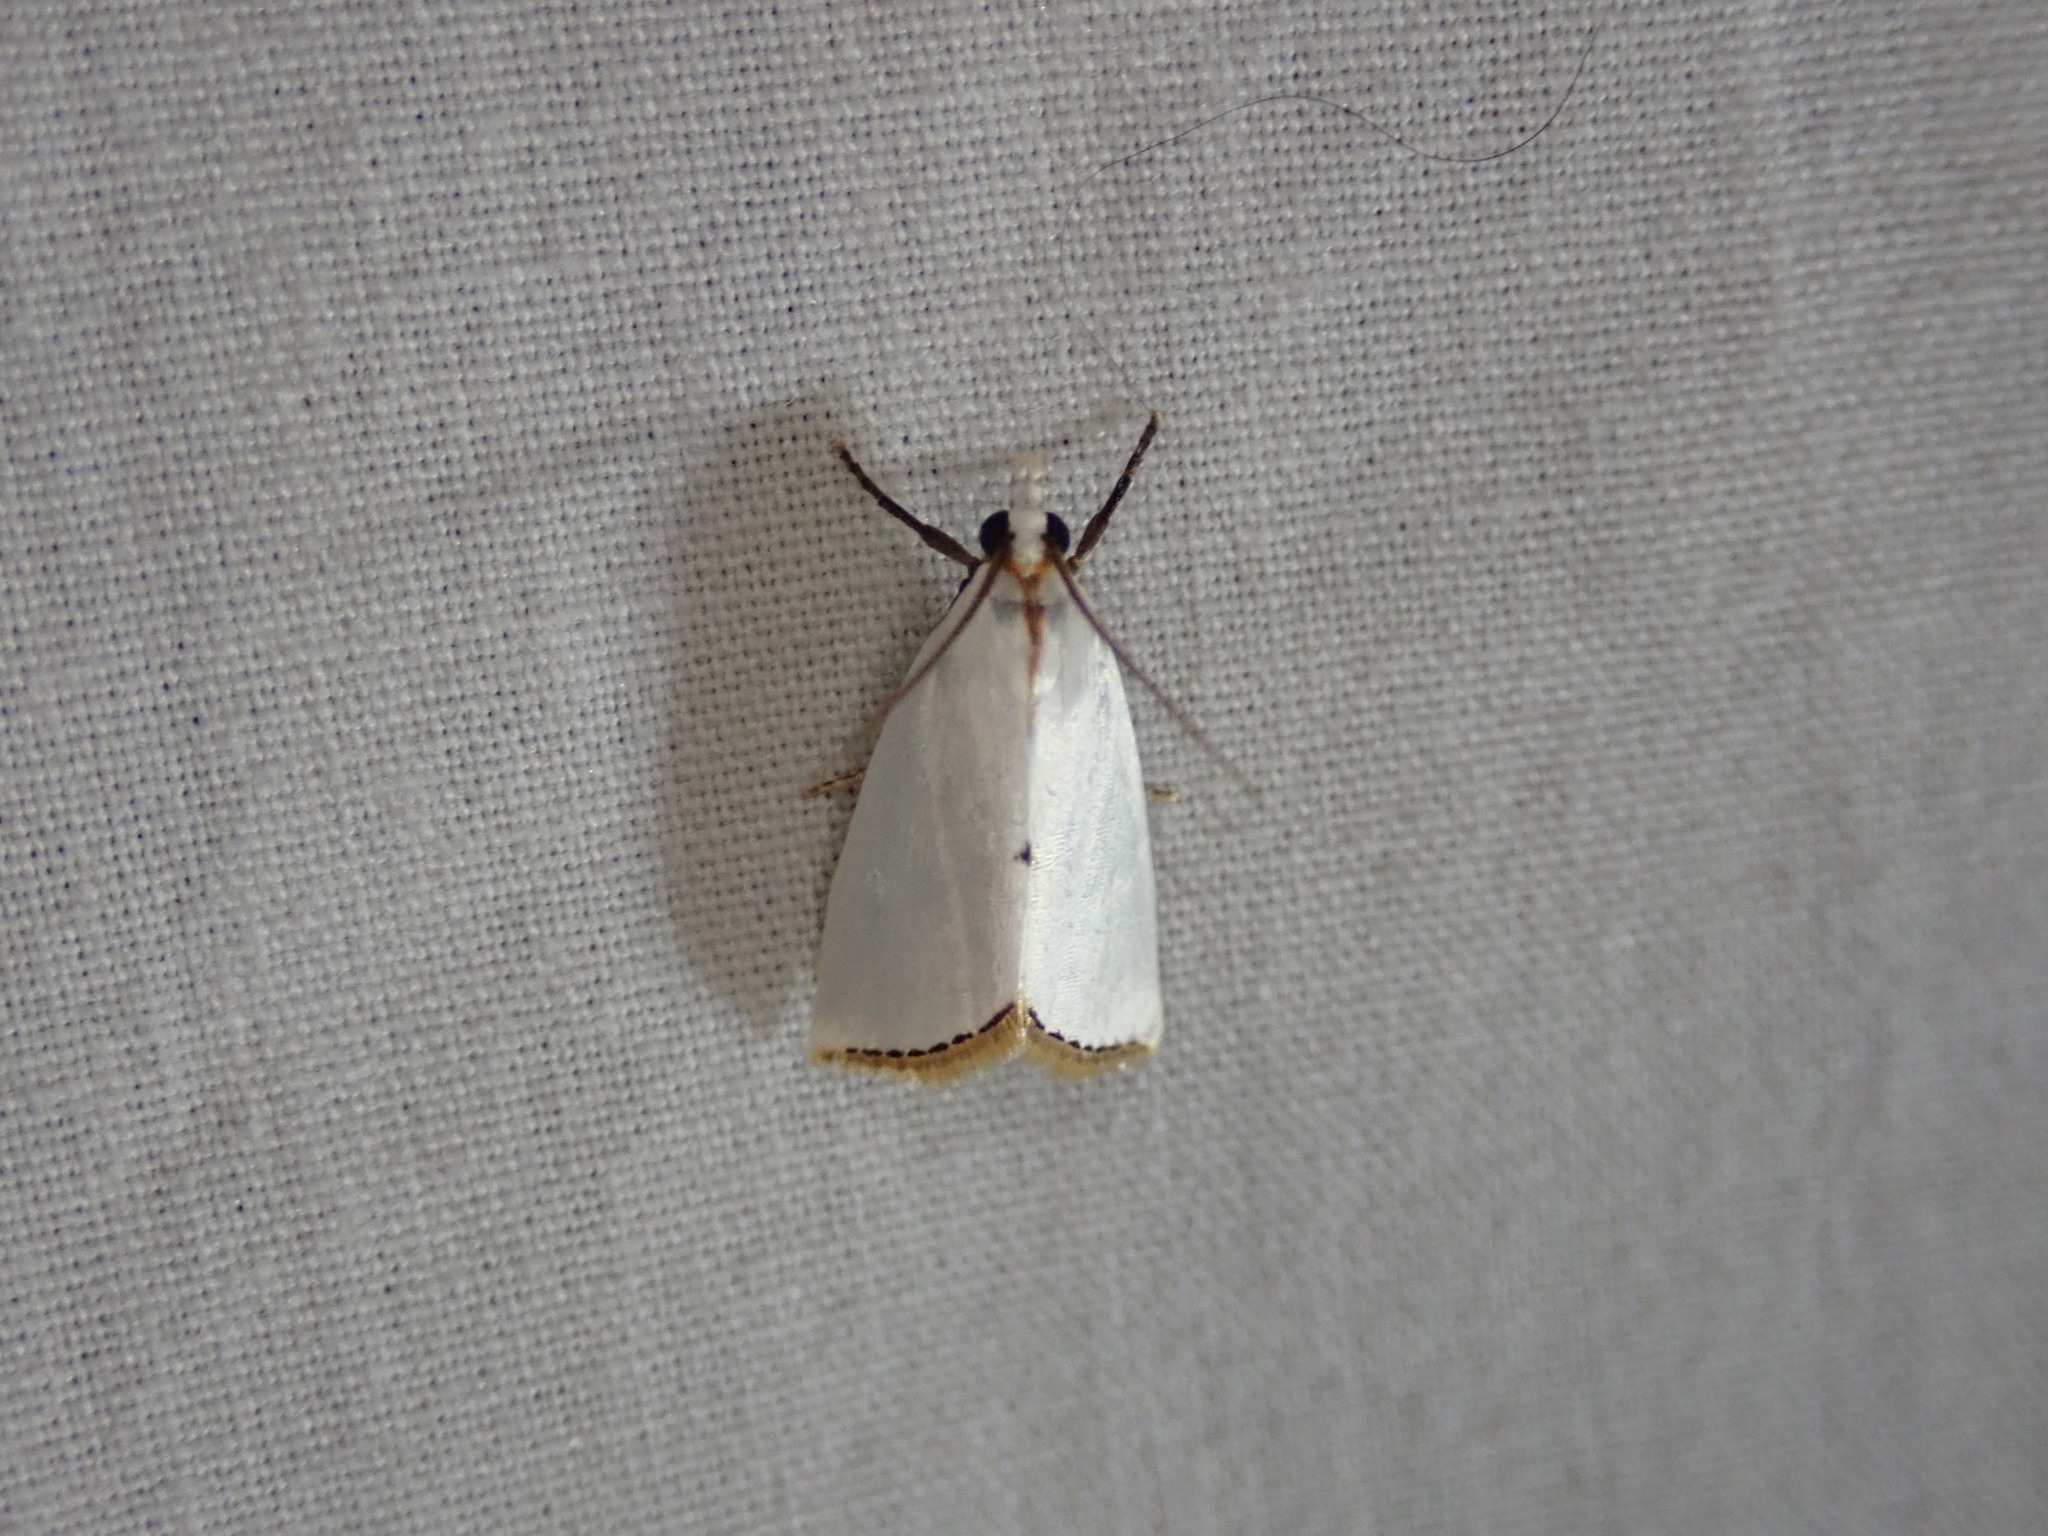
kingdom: Animalia
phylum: Arthropoda
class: Insecta
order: Lepidoptera
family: Crambidae
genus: Argyria
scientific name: Argyria nivalis
